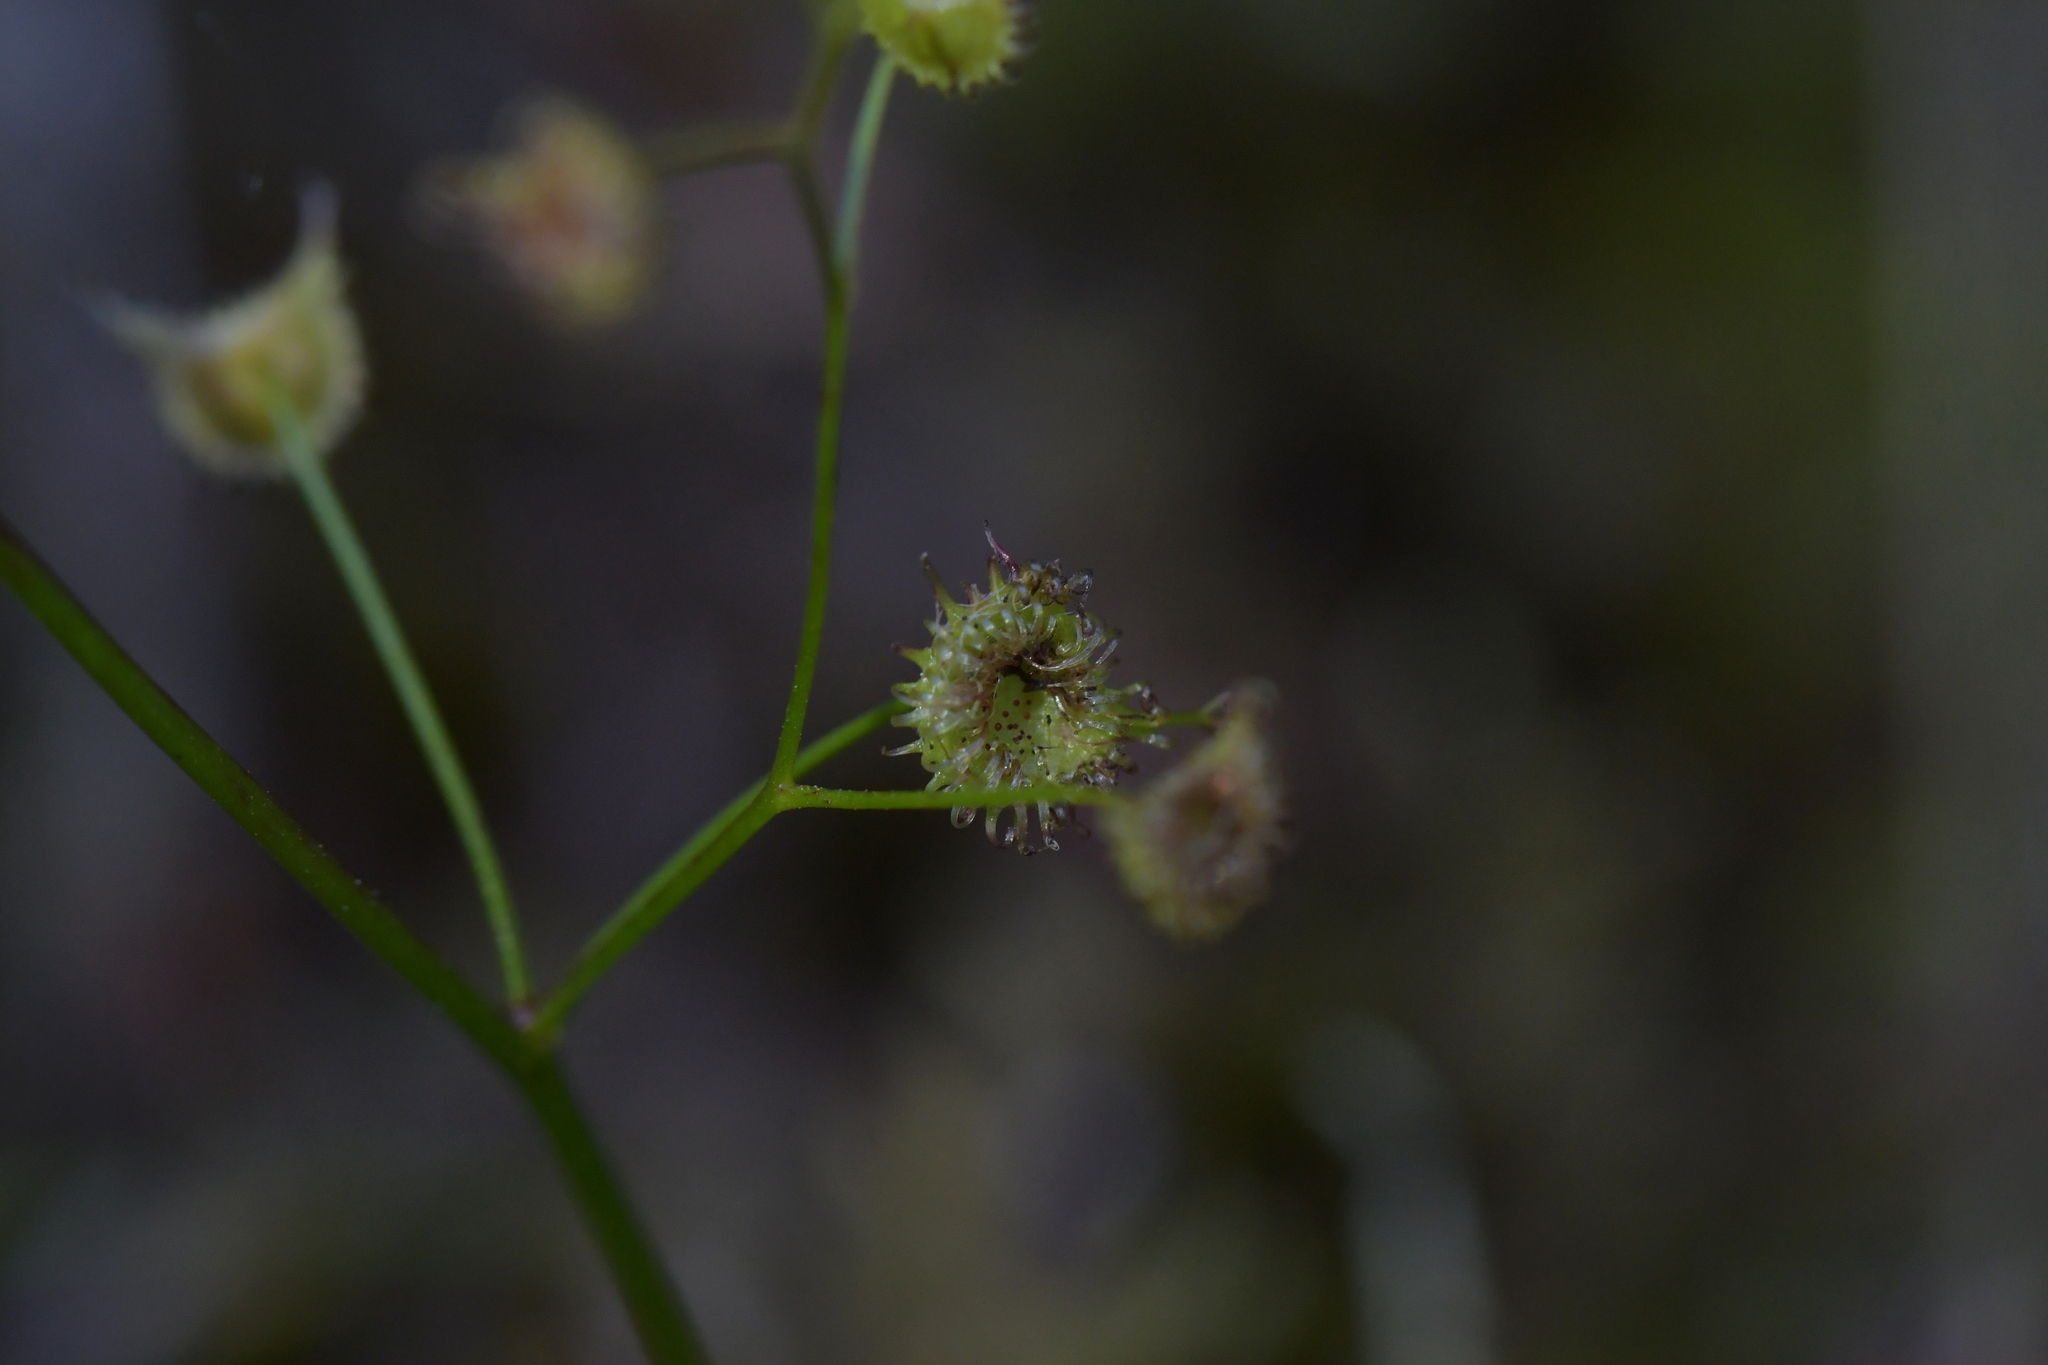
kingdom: Plantae
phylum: Tracheophyta
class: Magnoliopsida
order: Caryophyllales
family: Droseraceae
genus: Drosera
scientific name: Drosera peltata
